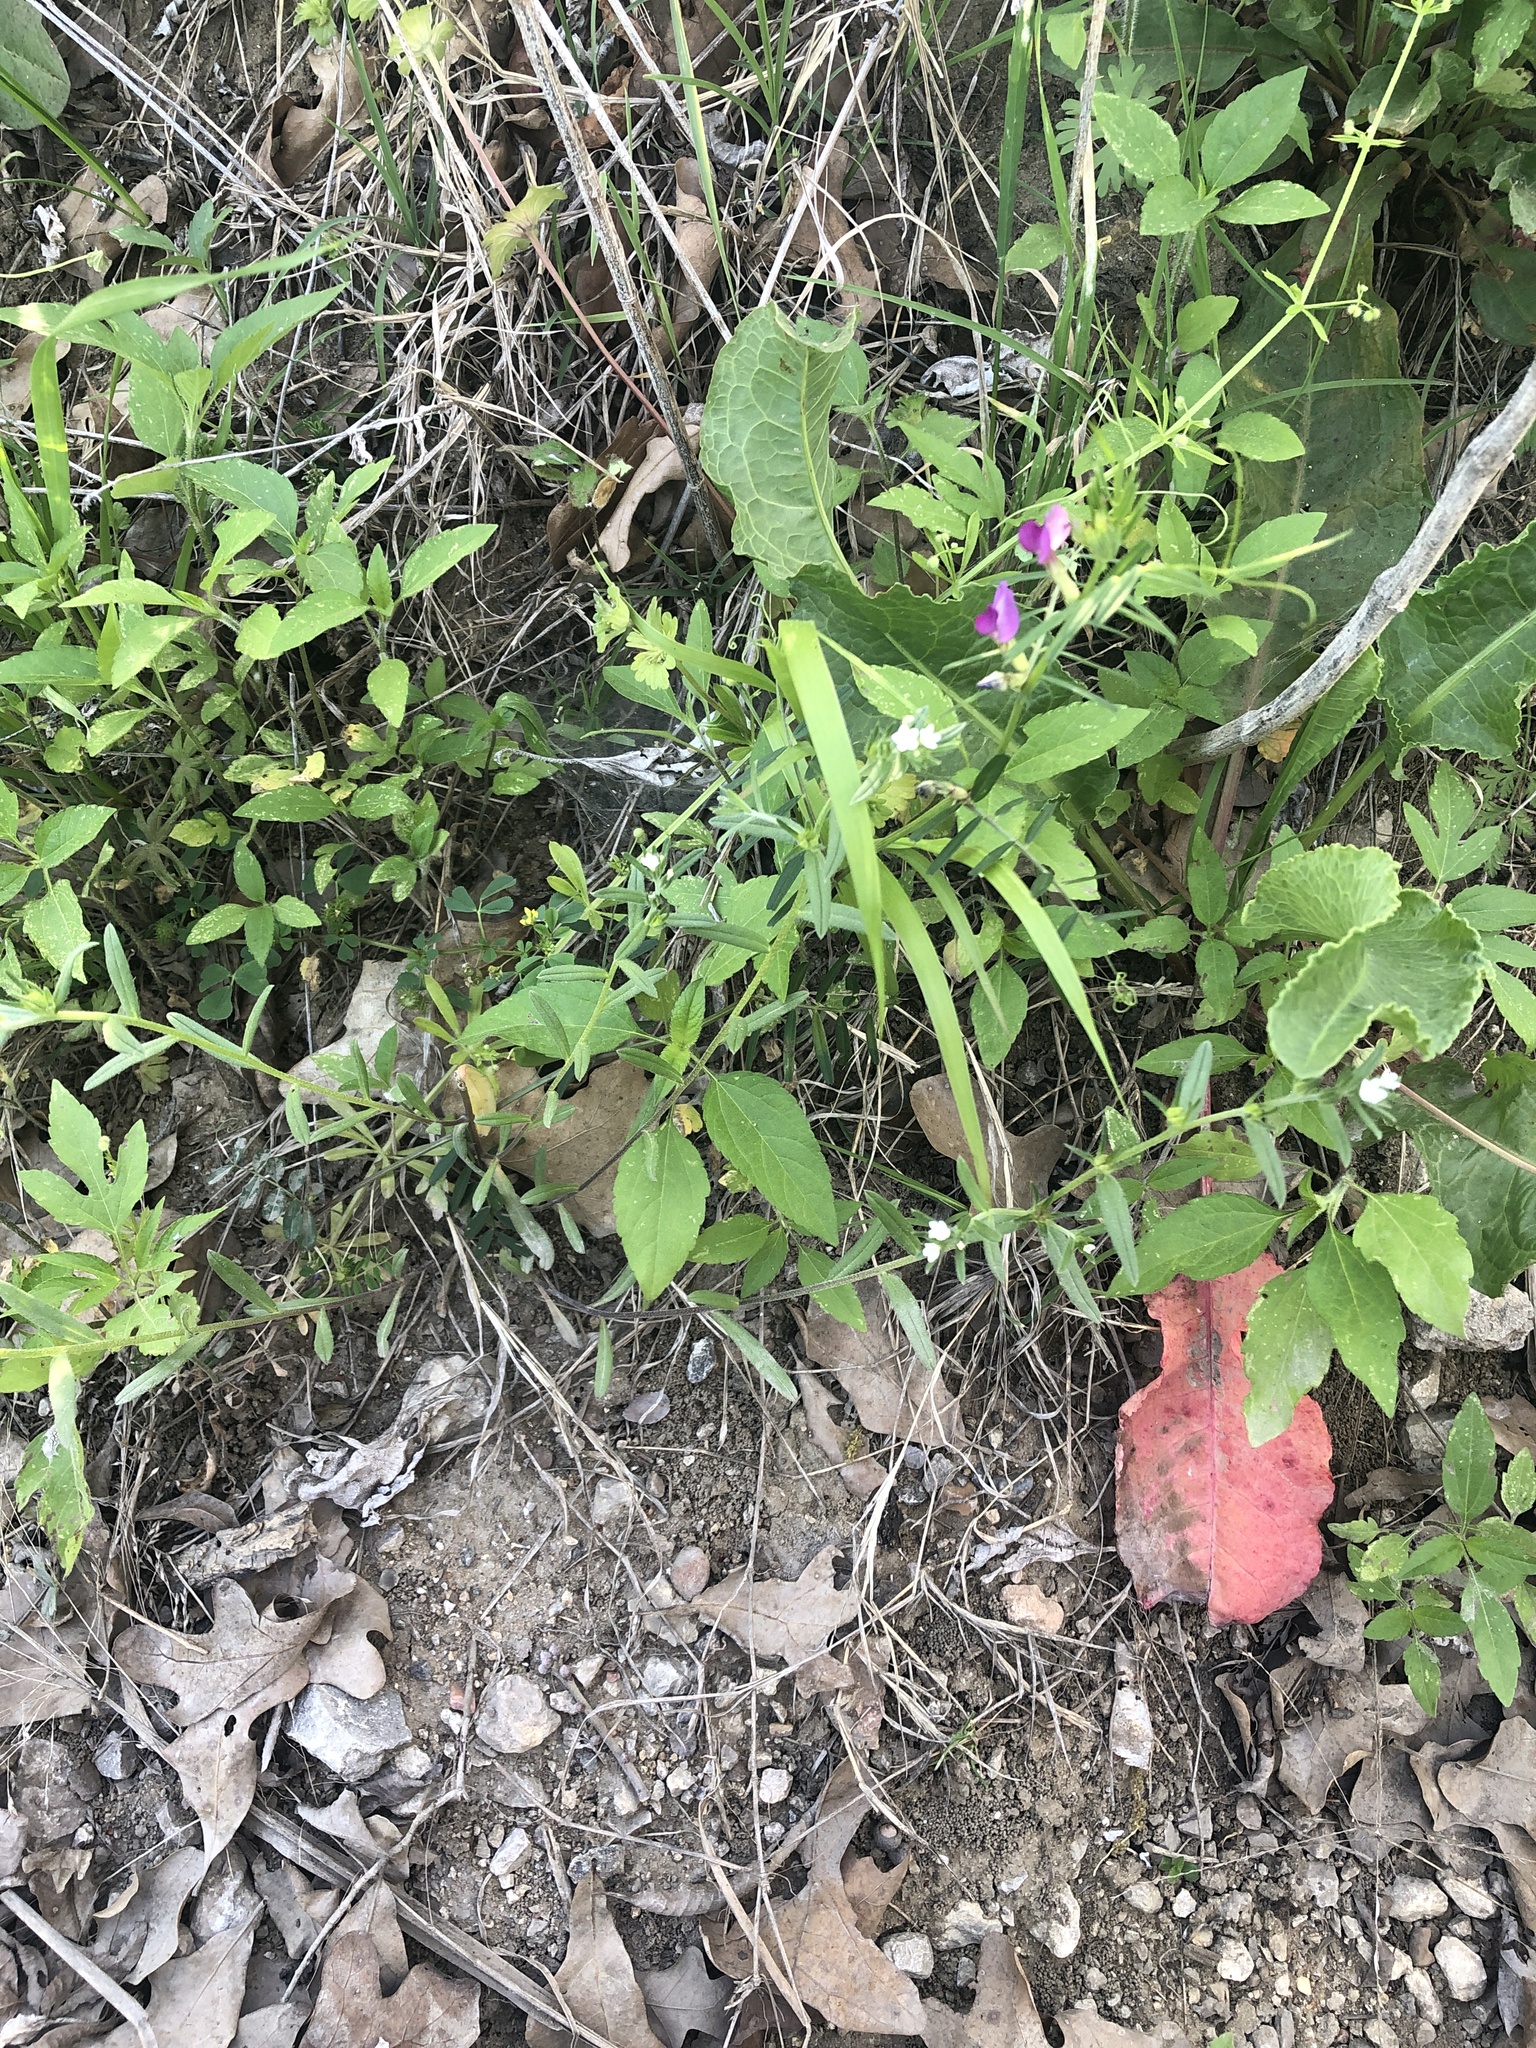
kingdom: Plantae
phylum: Tracheophyta
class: Magnoliopsida
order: Boraginales
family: Boraginaceae
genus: Buglossoides
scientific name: Buglossoides arvensis
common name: Corn gromwell
